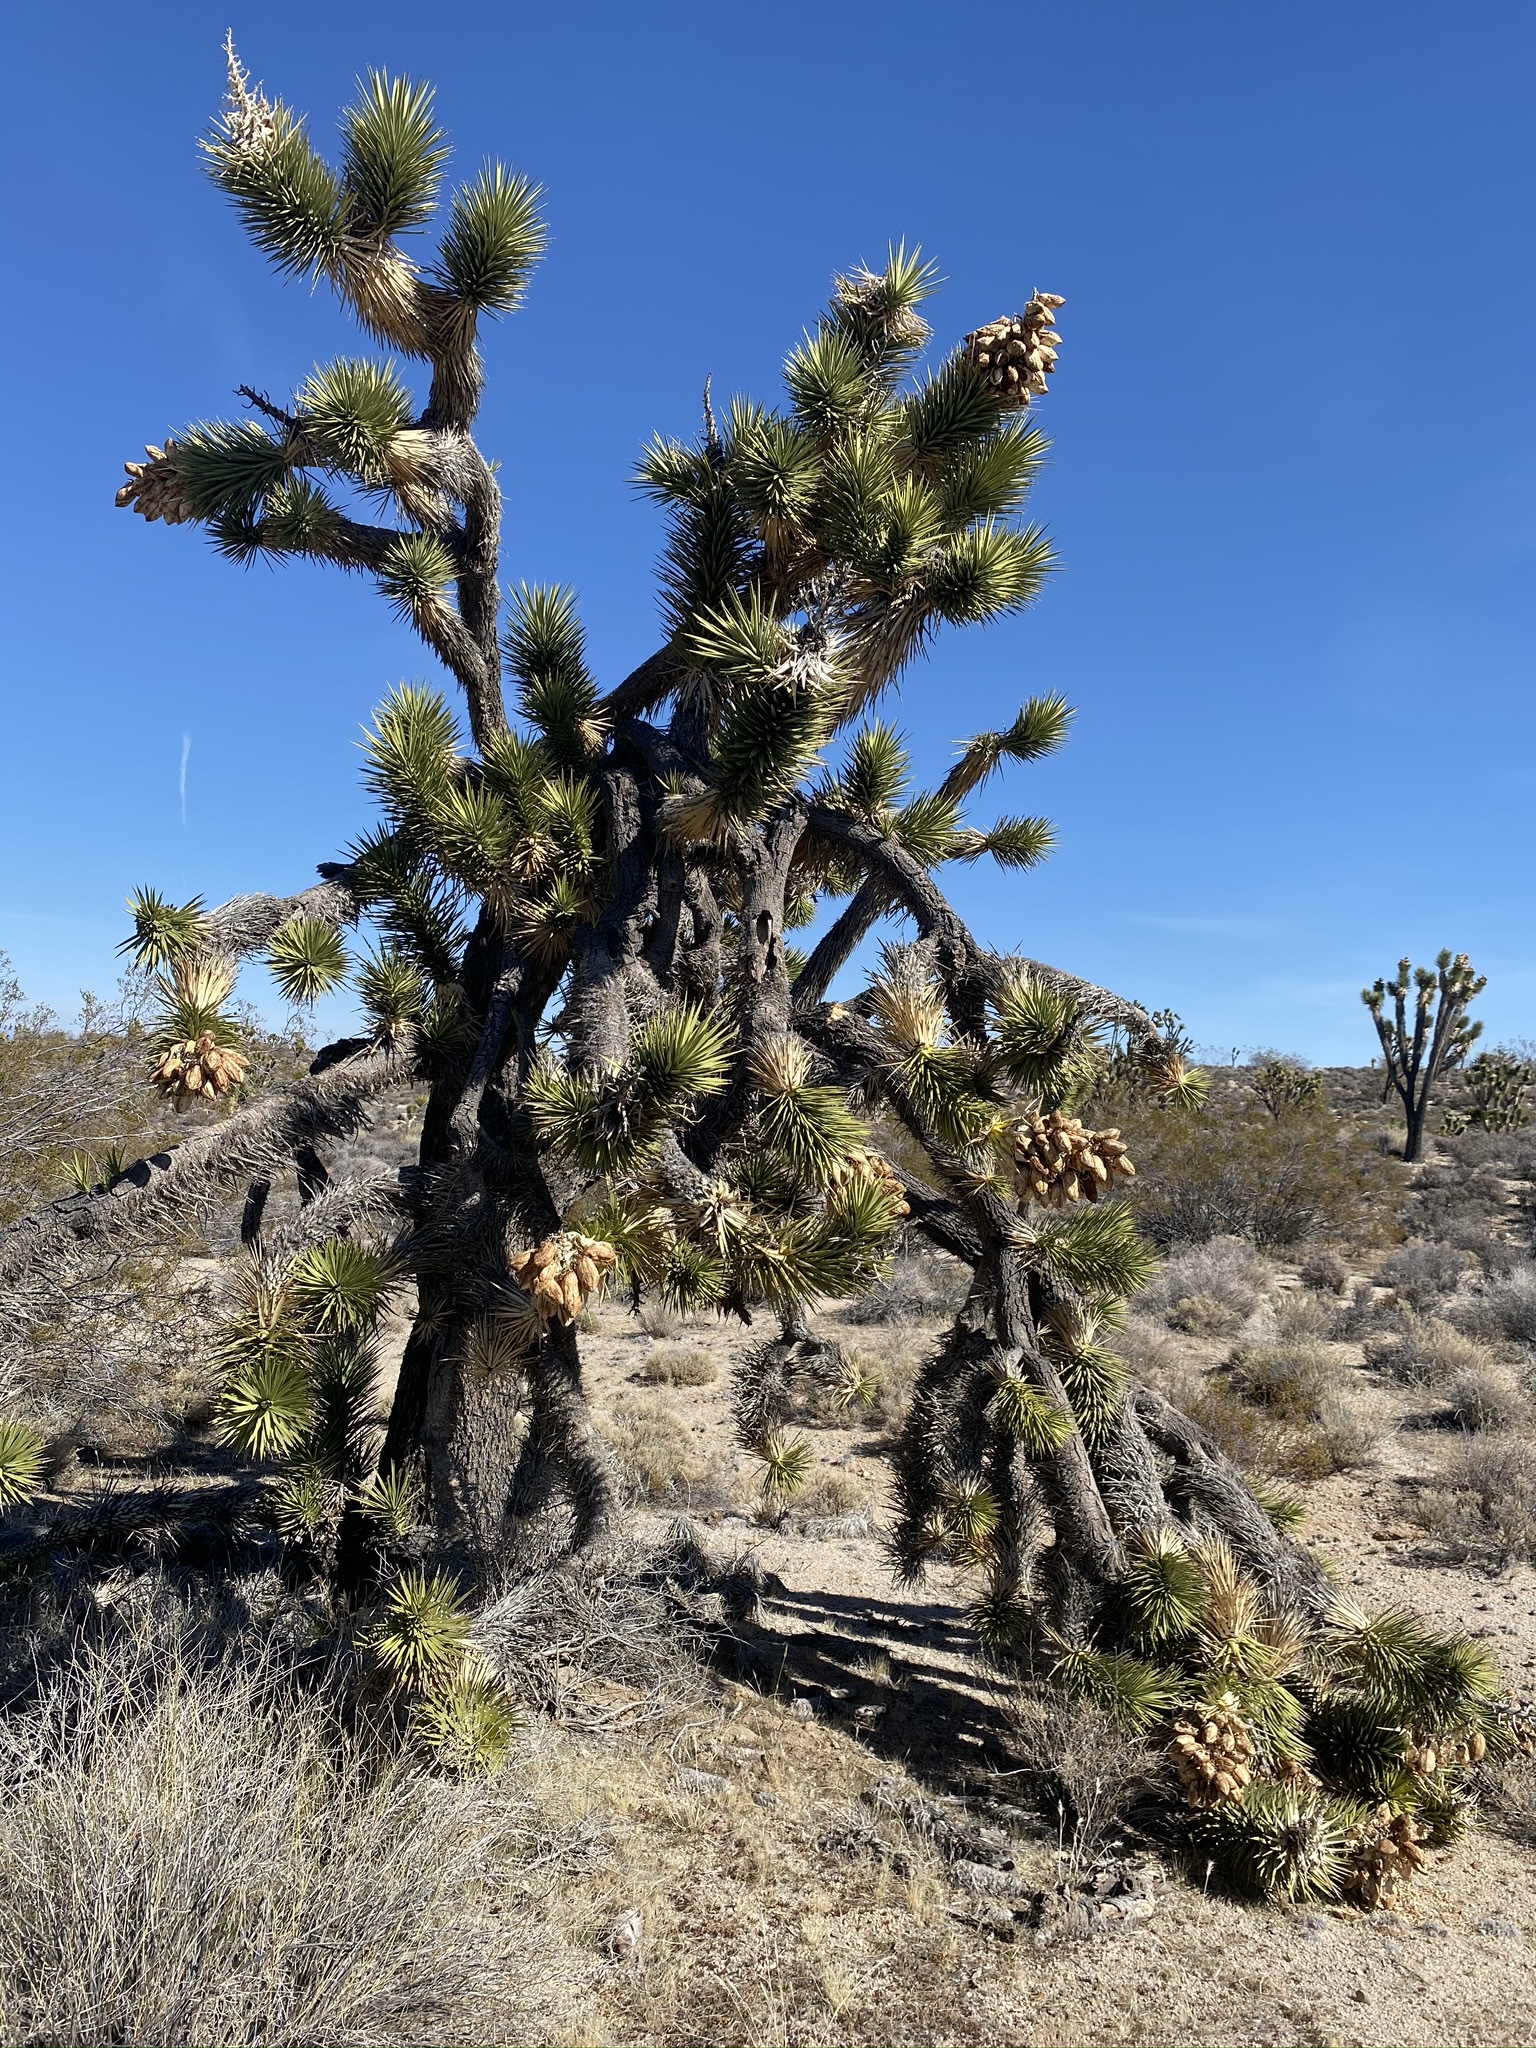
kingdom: Plantae
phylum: Tracheophyta
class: Liliopsida
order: Asparagales
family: Asparagaceae
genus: Yucca
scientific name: Yucca brevifolia
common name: Joshua tree
